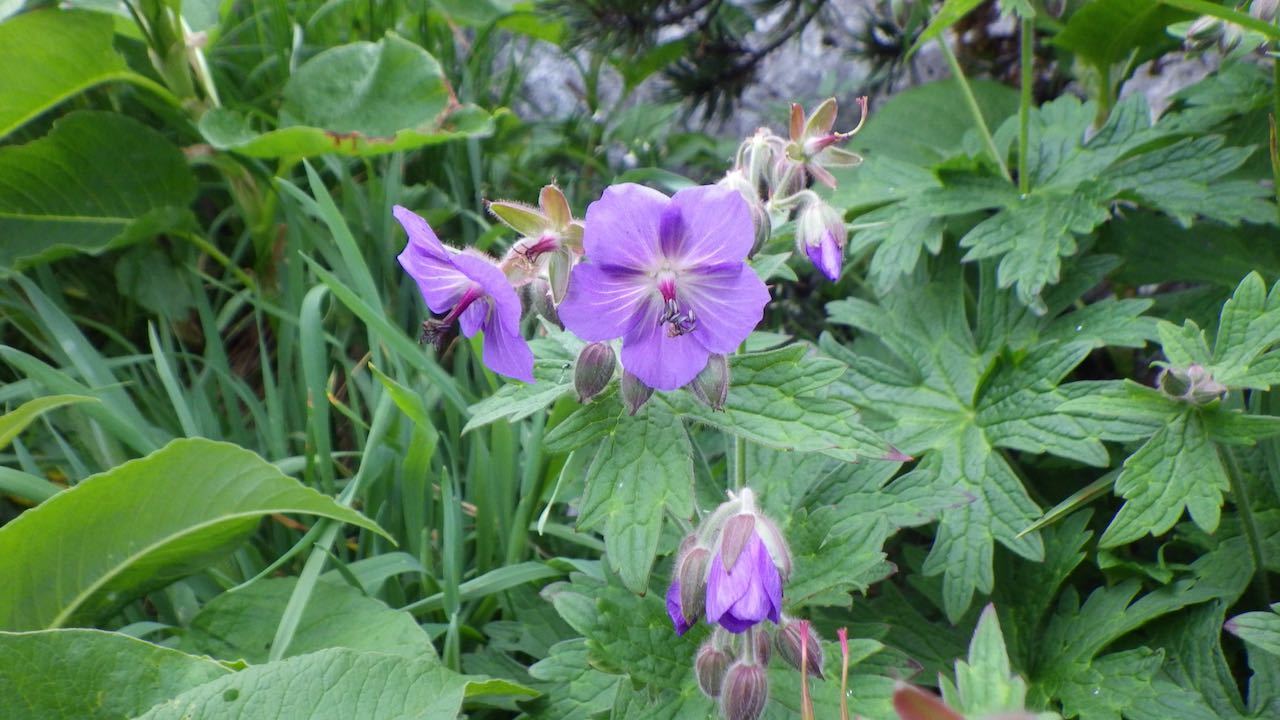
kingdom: Plantae
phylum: Tracheophyta
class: Magnoliopsida
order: Geraniales
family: Geraniaceae
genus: Geranium
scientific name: Geranium reinii
